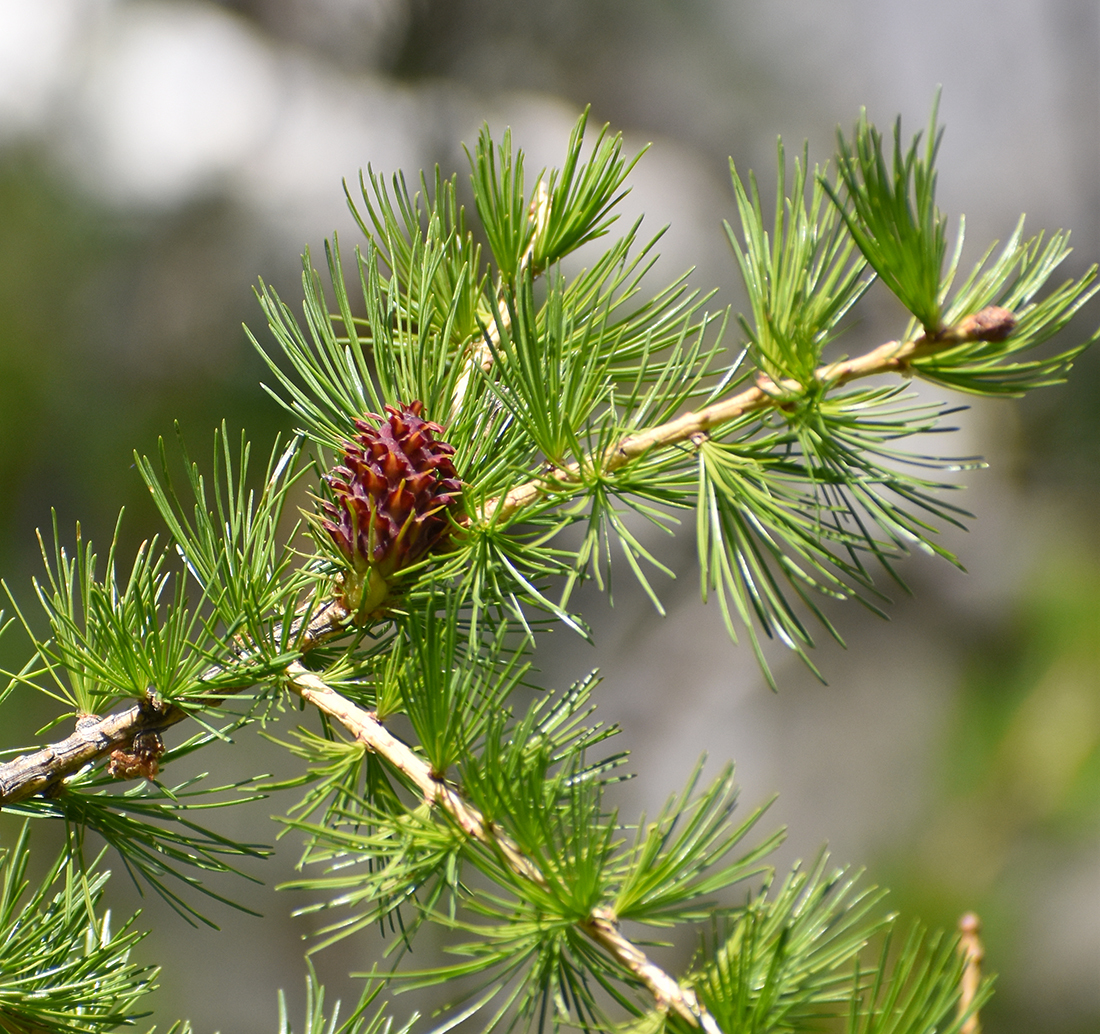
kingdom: Plantae
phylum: Tracheophyta
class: Pinopsida
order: Pinales
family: Pinaceae
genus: Larix
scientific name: Larix decidua
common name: European larch
